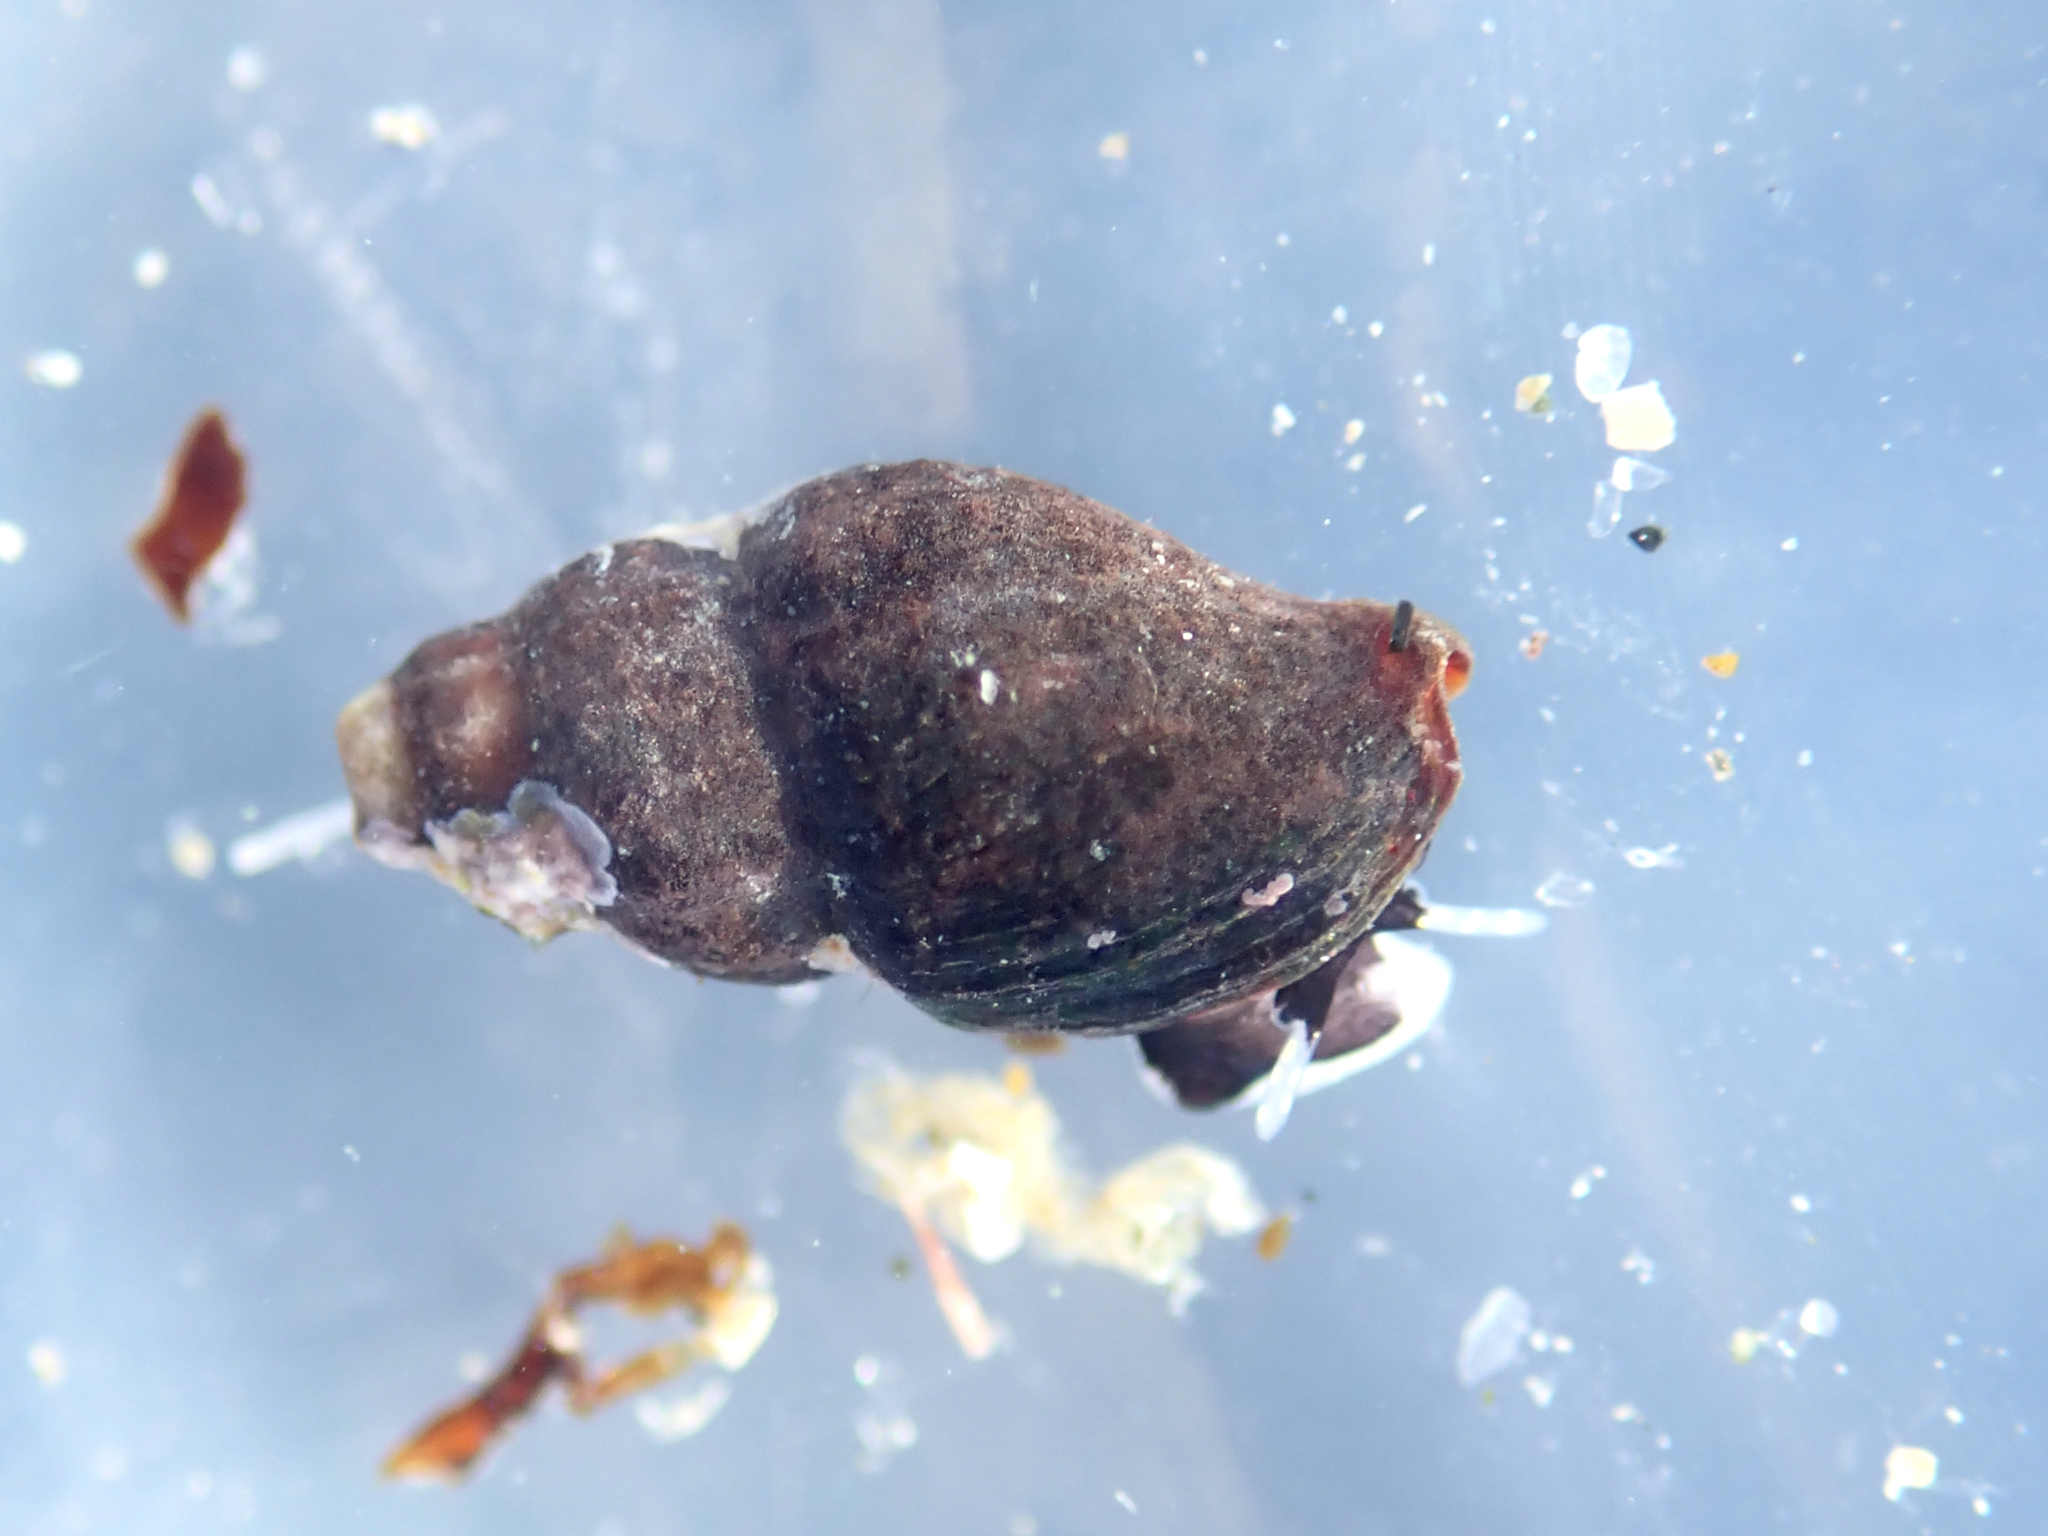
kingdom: Animalia
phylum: Mollusca
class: Gastropoda
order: Neogastropoda
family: Costellariidae
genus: Austromitra
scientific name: Austromitra rubiginosa
